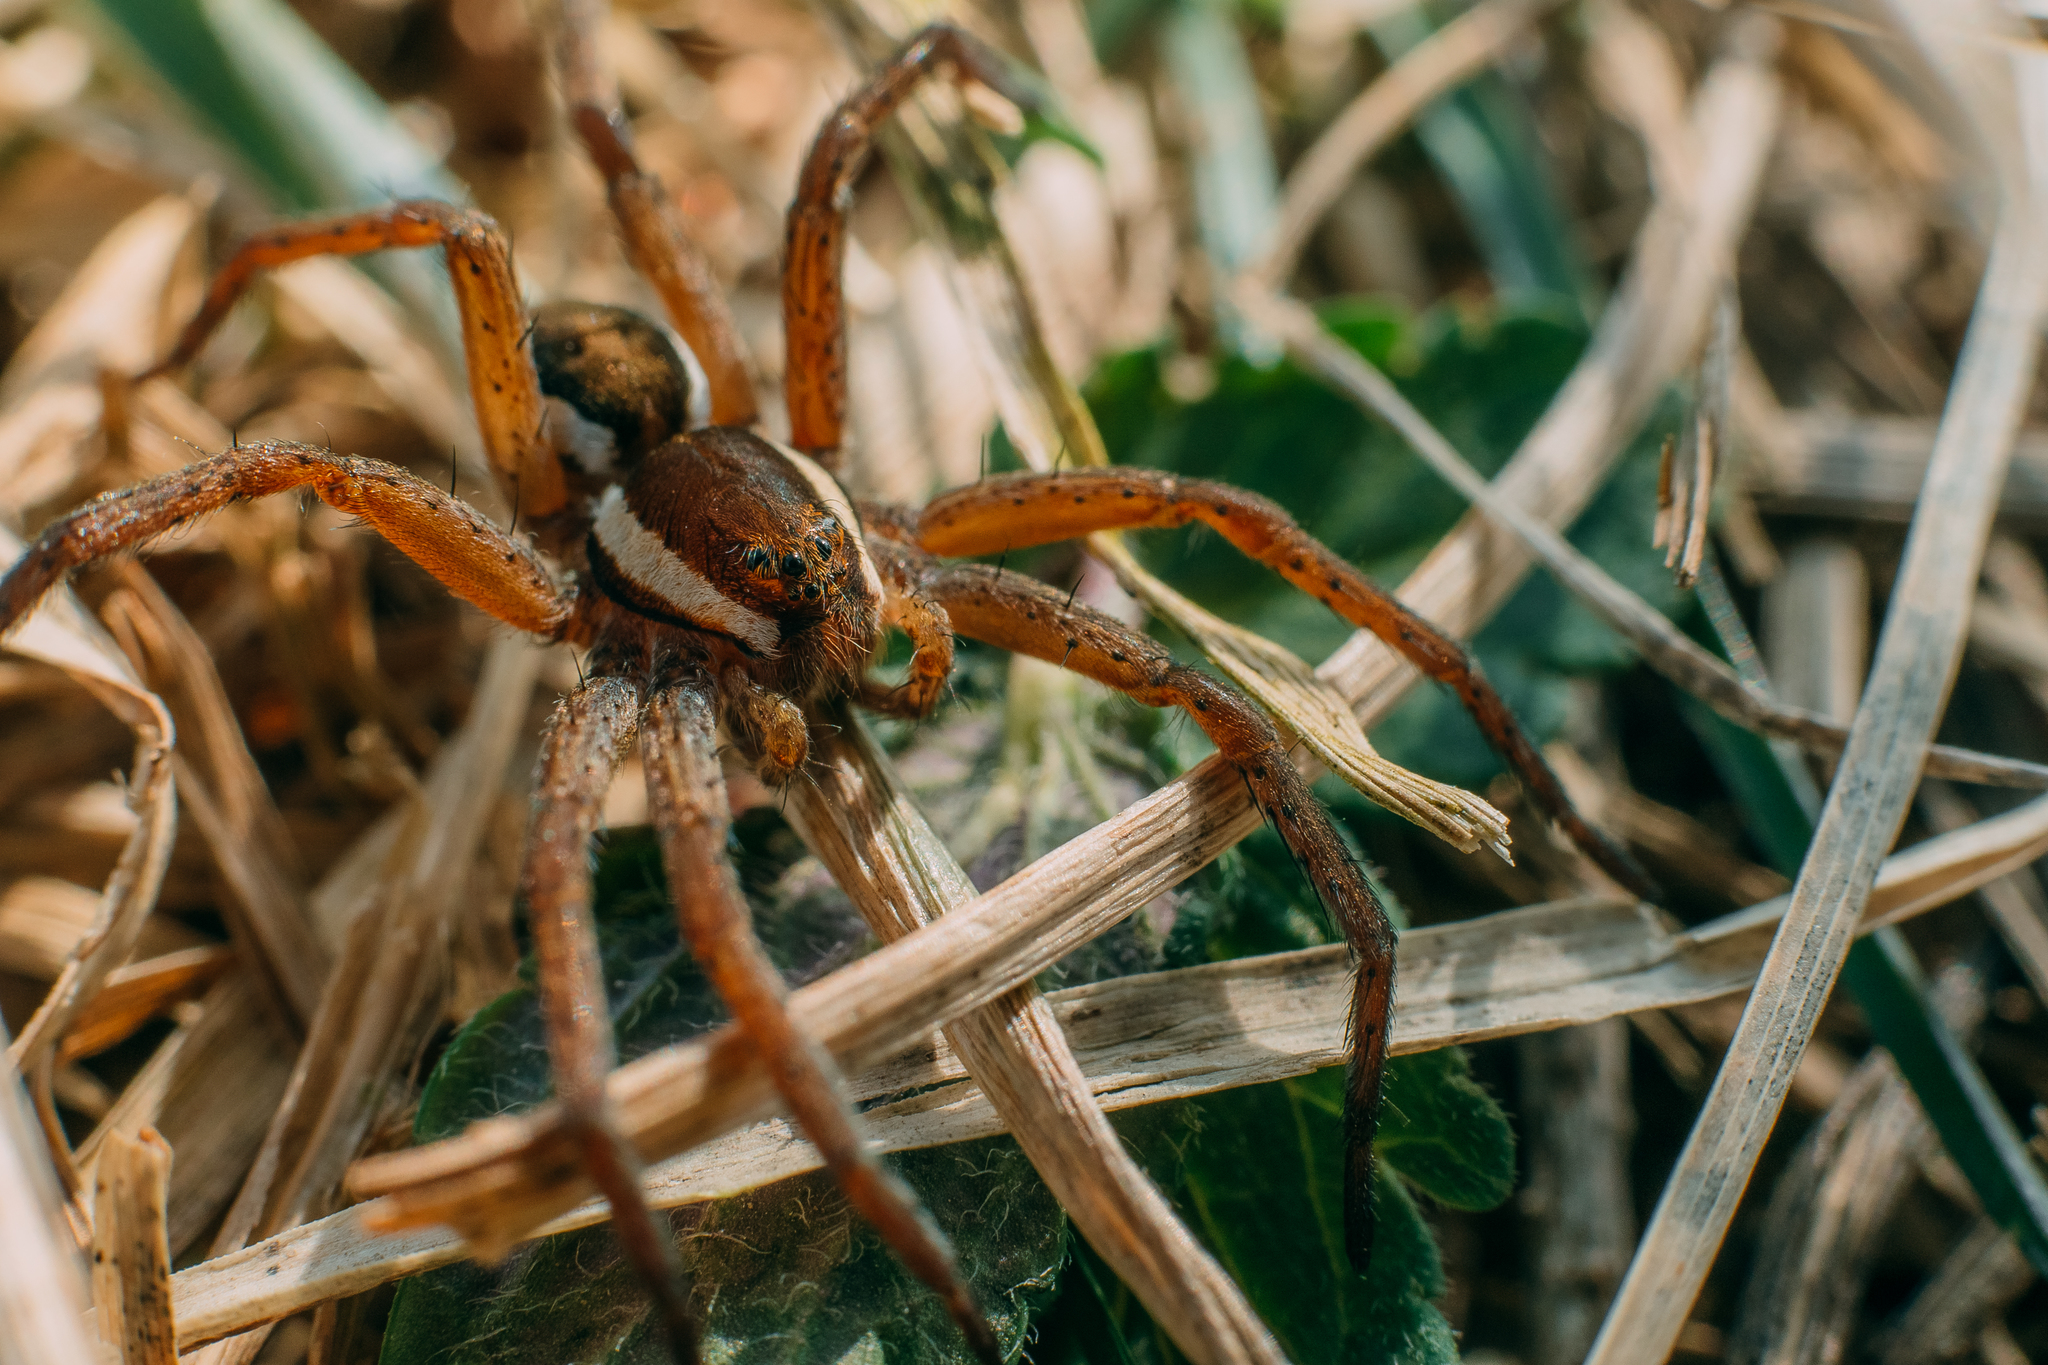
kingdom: Animalia
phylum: Arthropoda
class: Arachnida
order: Araneae
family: Pisauridae
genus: Dolomedes
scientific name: Dolomedes fimbriatus
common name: Raft spider
